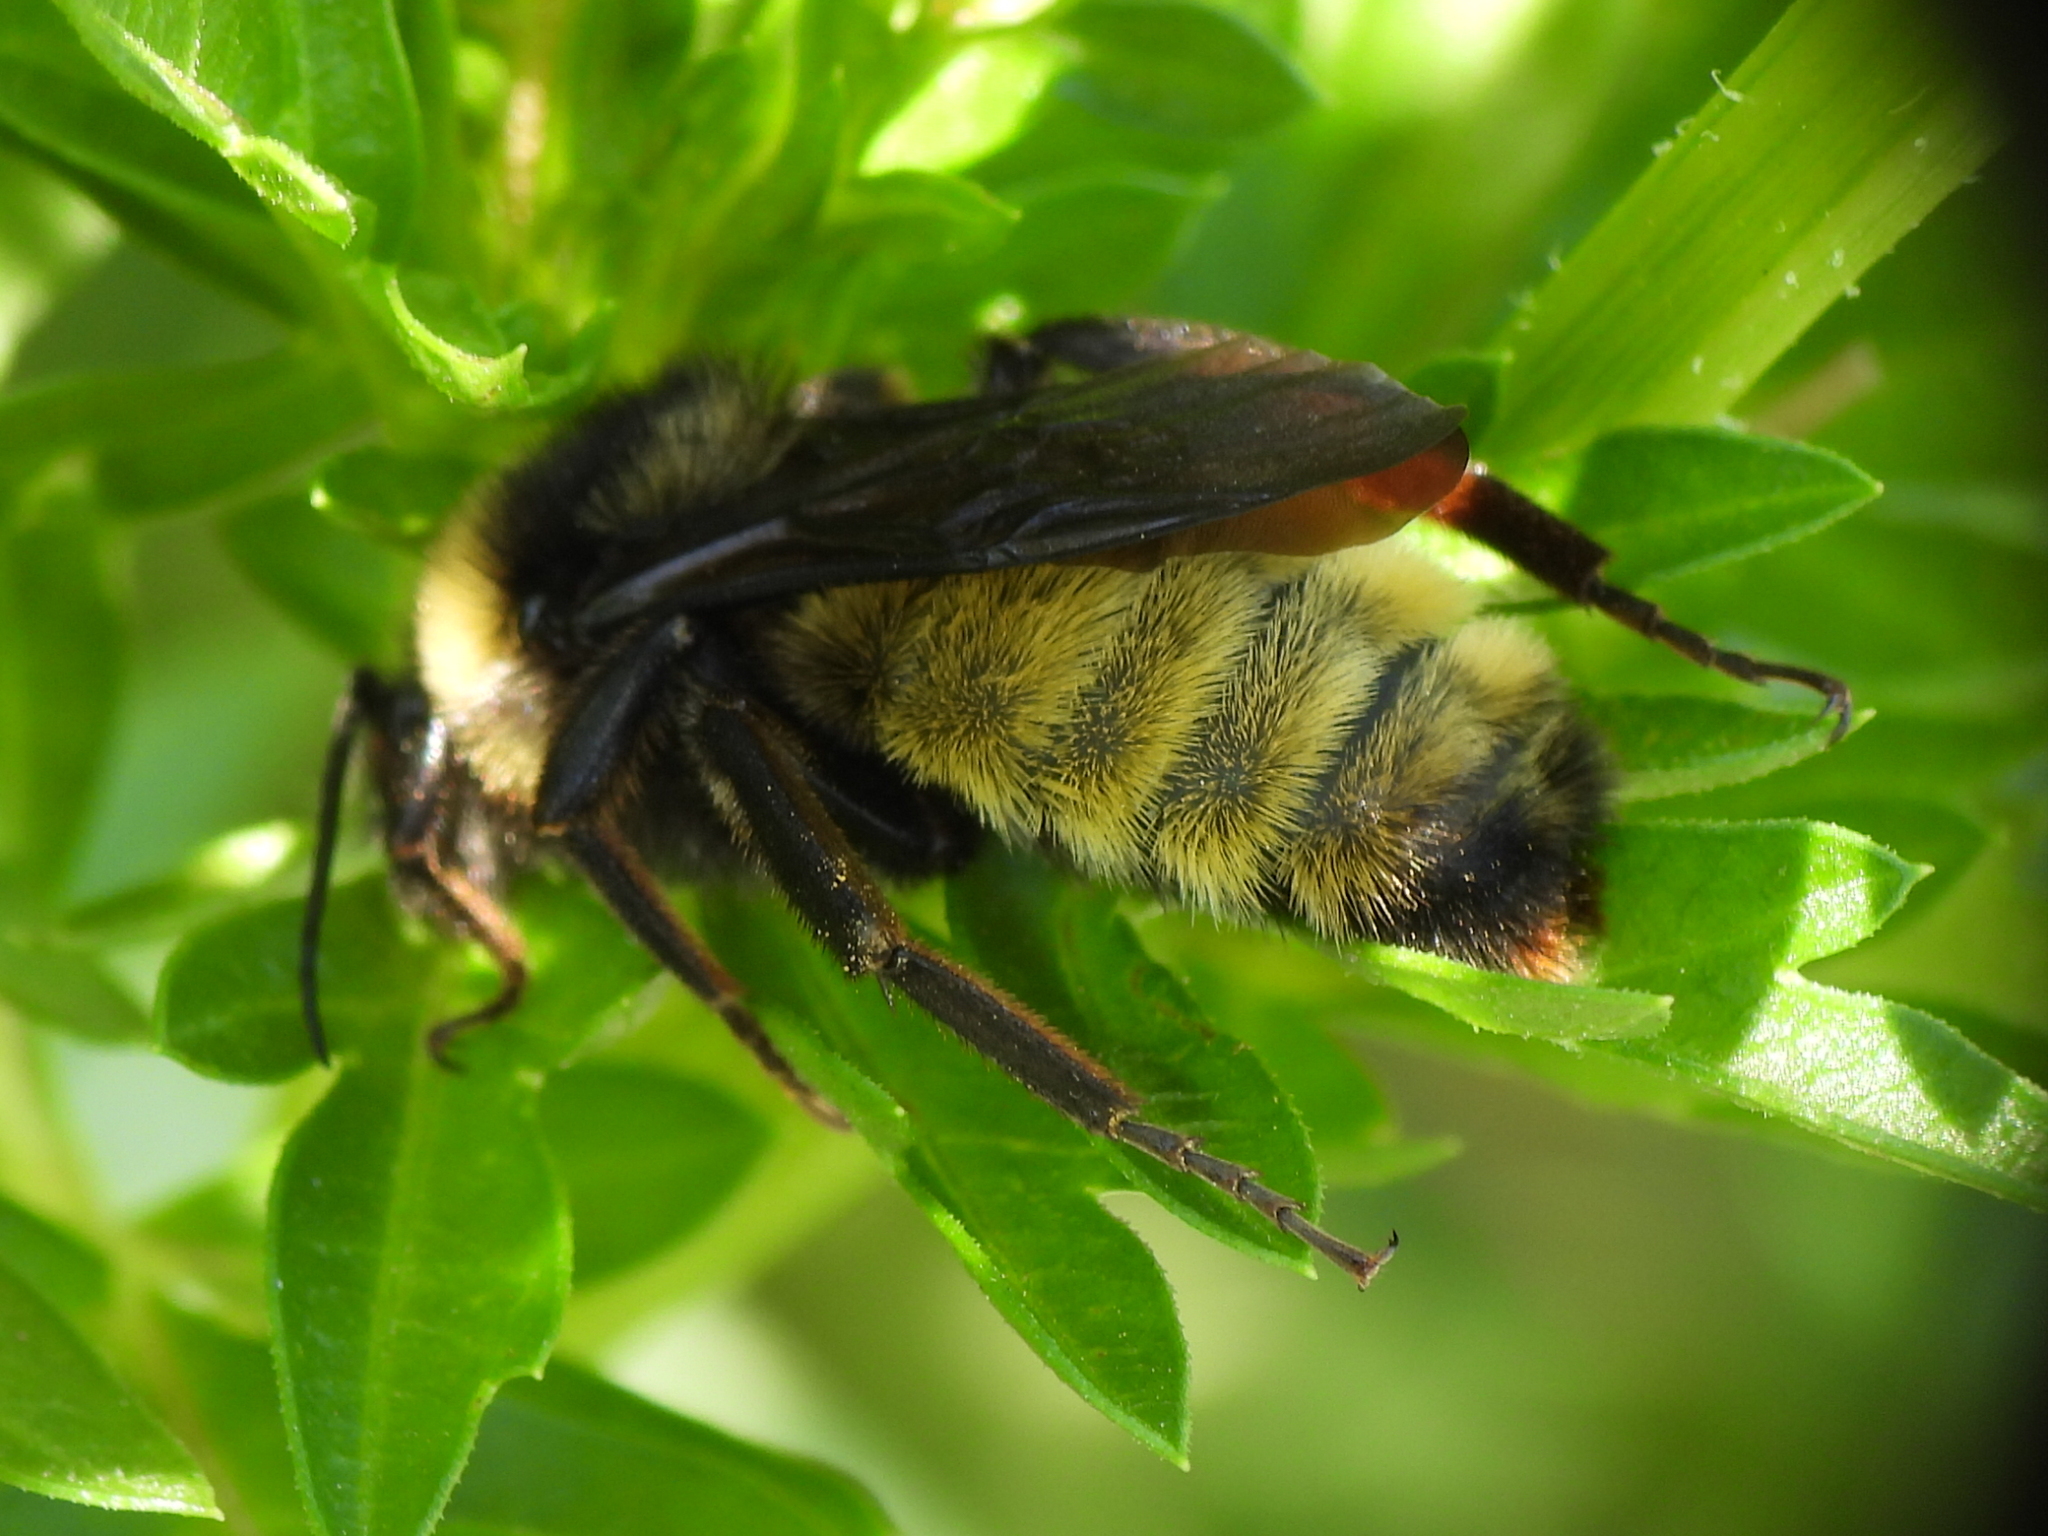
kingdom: Animalia
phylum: Arthropoda
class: Insecta
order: Hymenoptera
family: Apidae
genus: Bombus
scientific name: Bombus pensylvanicus
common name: Bumble bee
